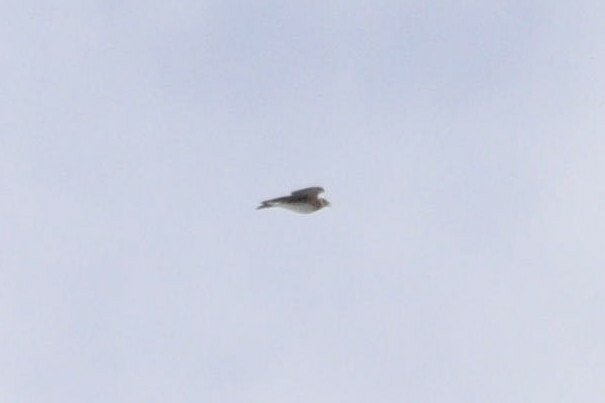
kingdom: Animalia
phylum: Chordata
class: Aves
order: Passeriformes
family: Alaudidae
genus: Alauda
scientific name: Alauda arvensis
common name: Eurasian skylark
